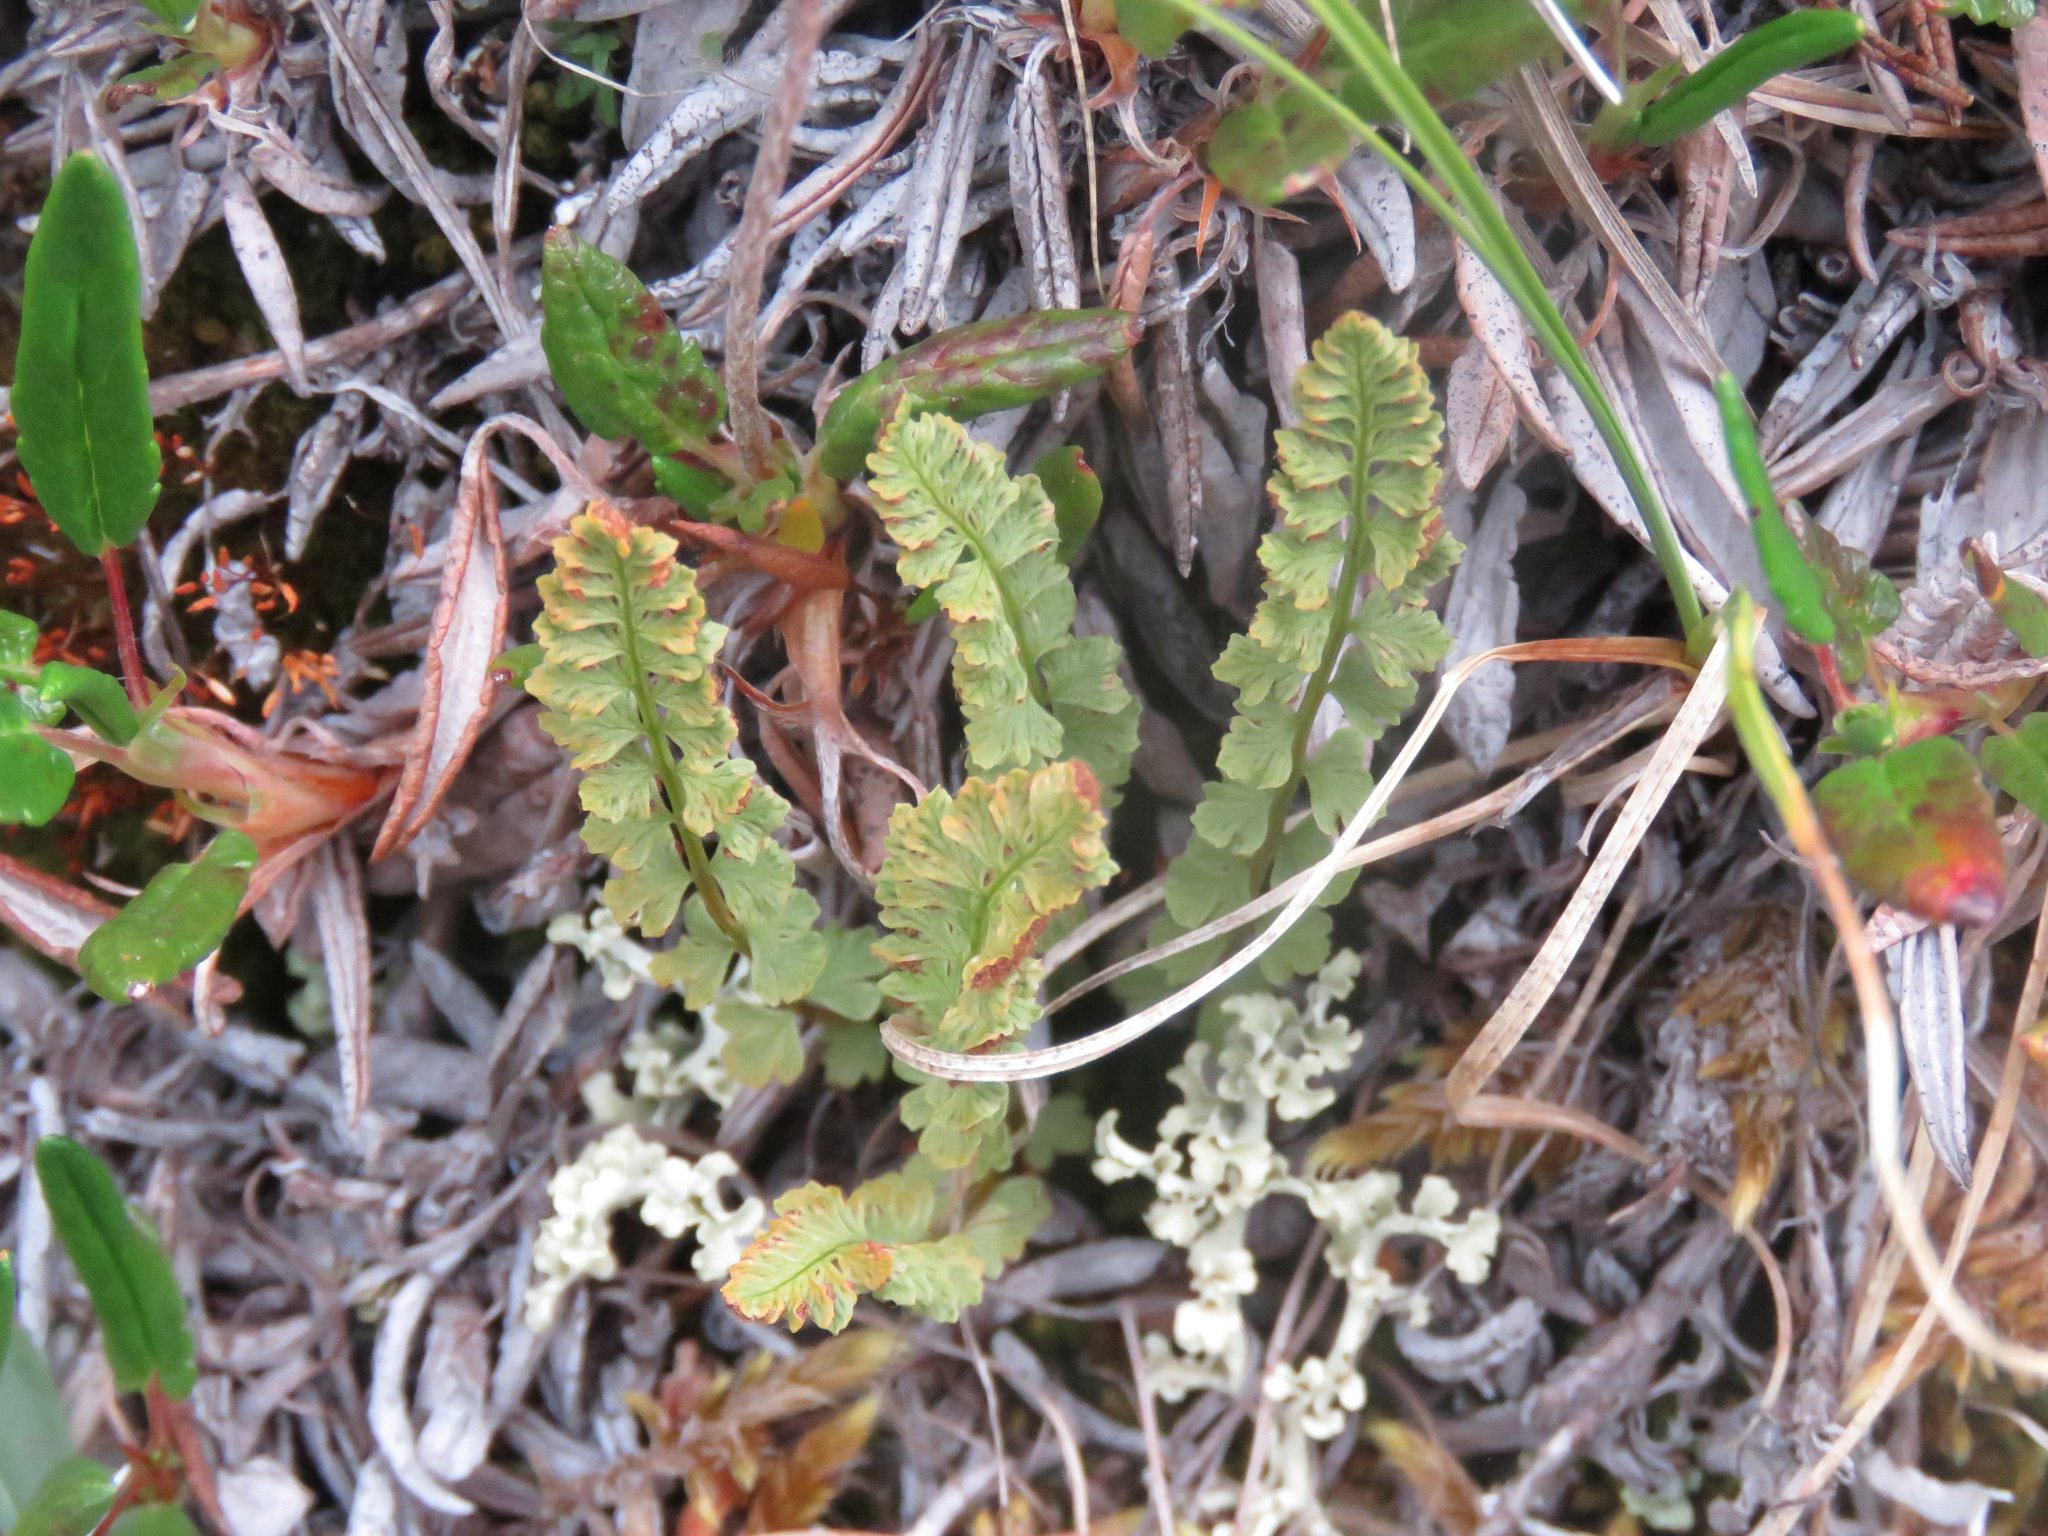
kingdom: Plantae
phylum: Tracheophyta
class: Polypodiopsida
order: Polypodiales
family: Woodsiaceae
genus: Woodsia
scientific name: Woodsia glabella
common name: Smooth woodsia
